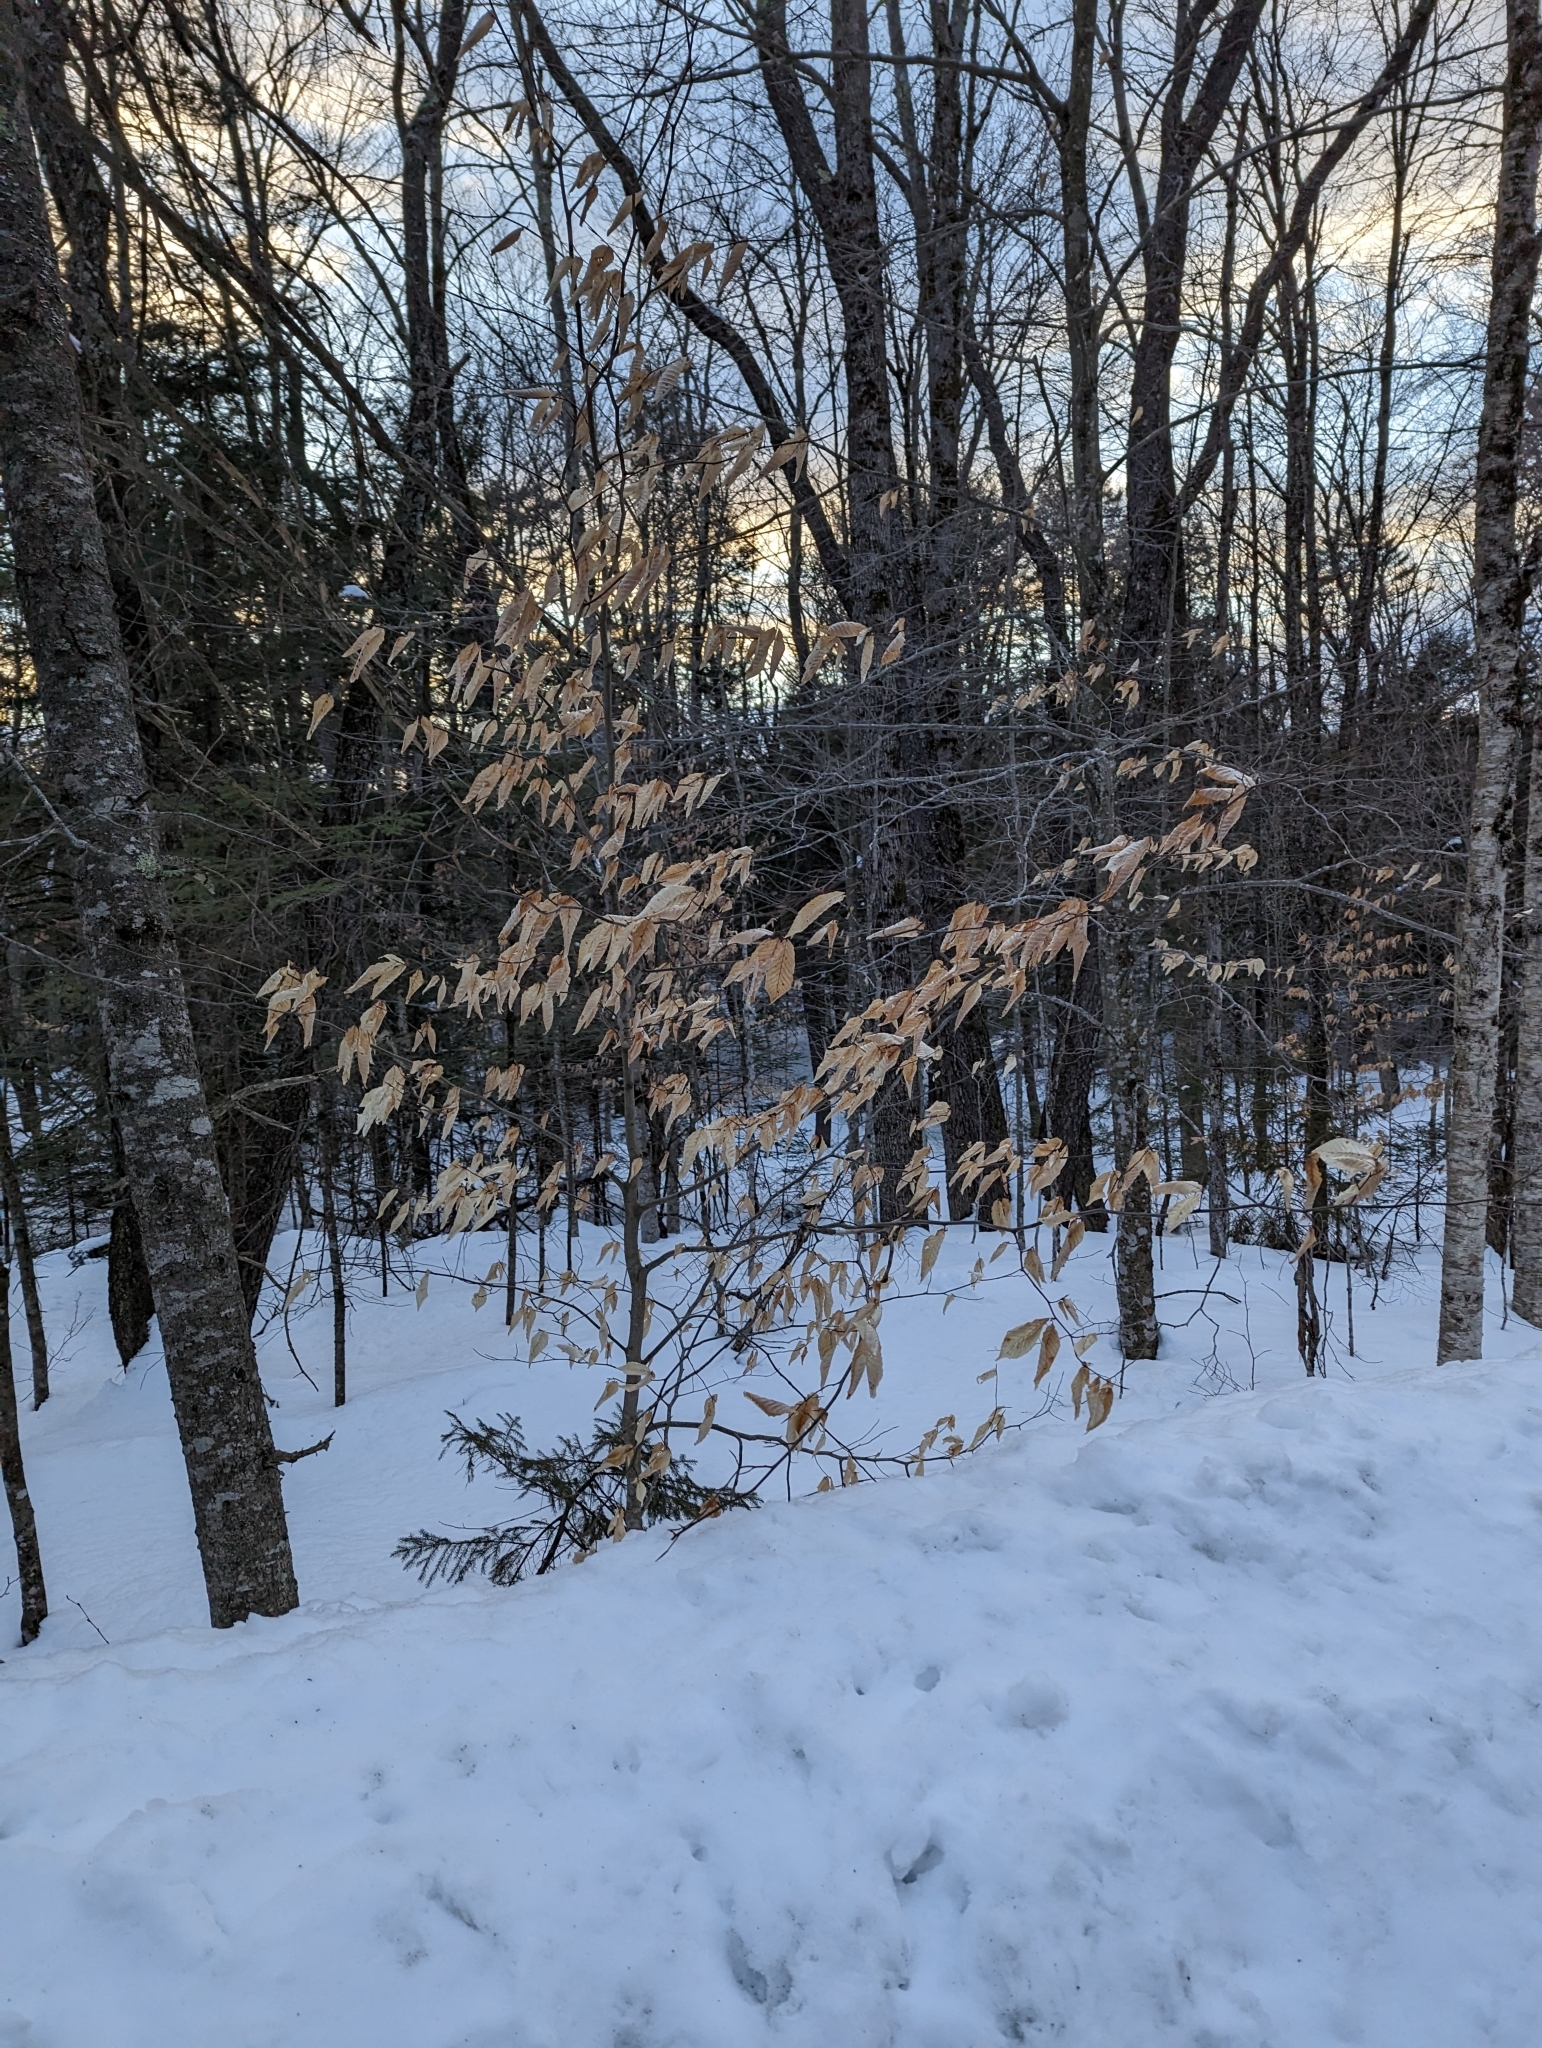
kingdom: Plantae
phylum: Tracheophyta
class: Magnoliopsida
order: Fagales
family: Fagaceae
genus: Fagus
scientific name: Fagus grandifolia
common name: American beech
